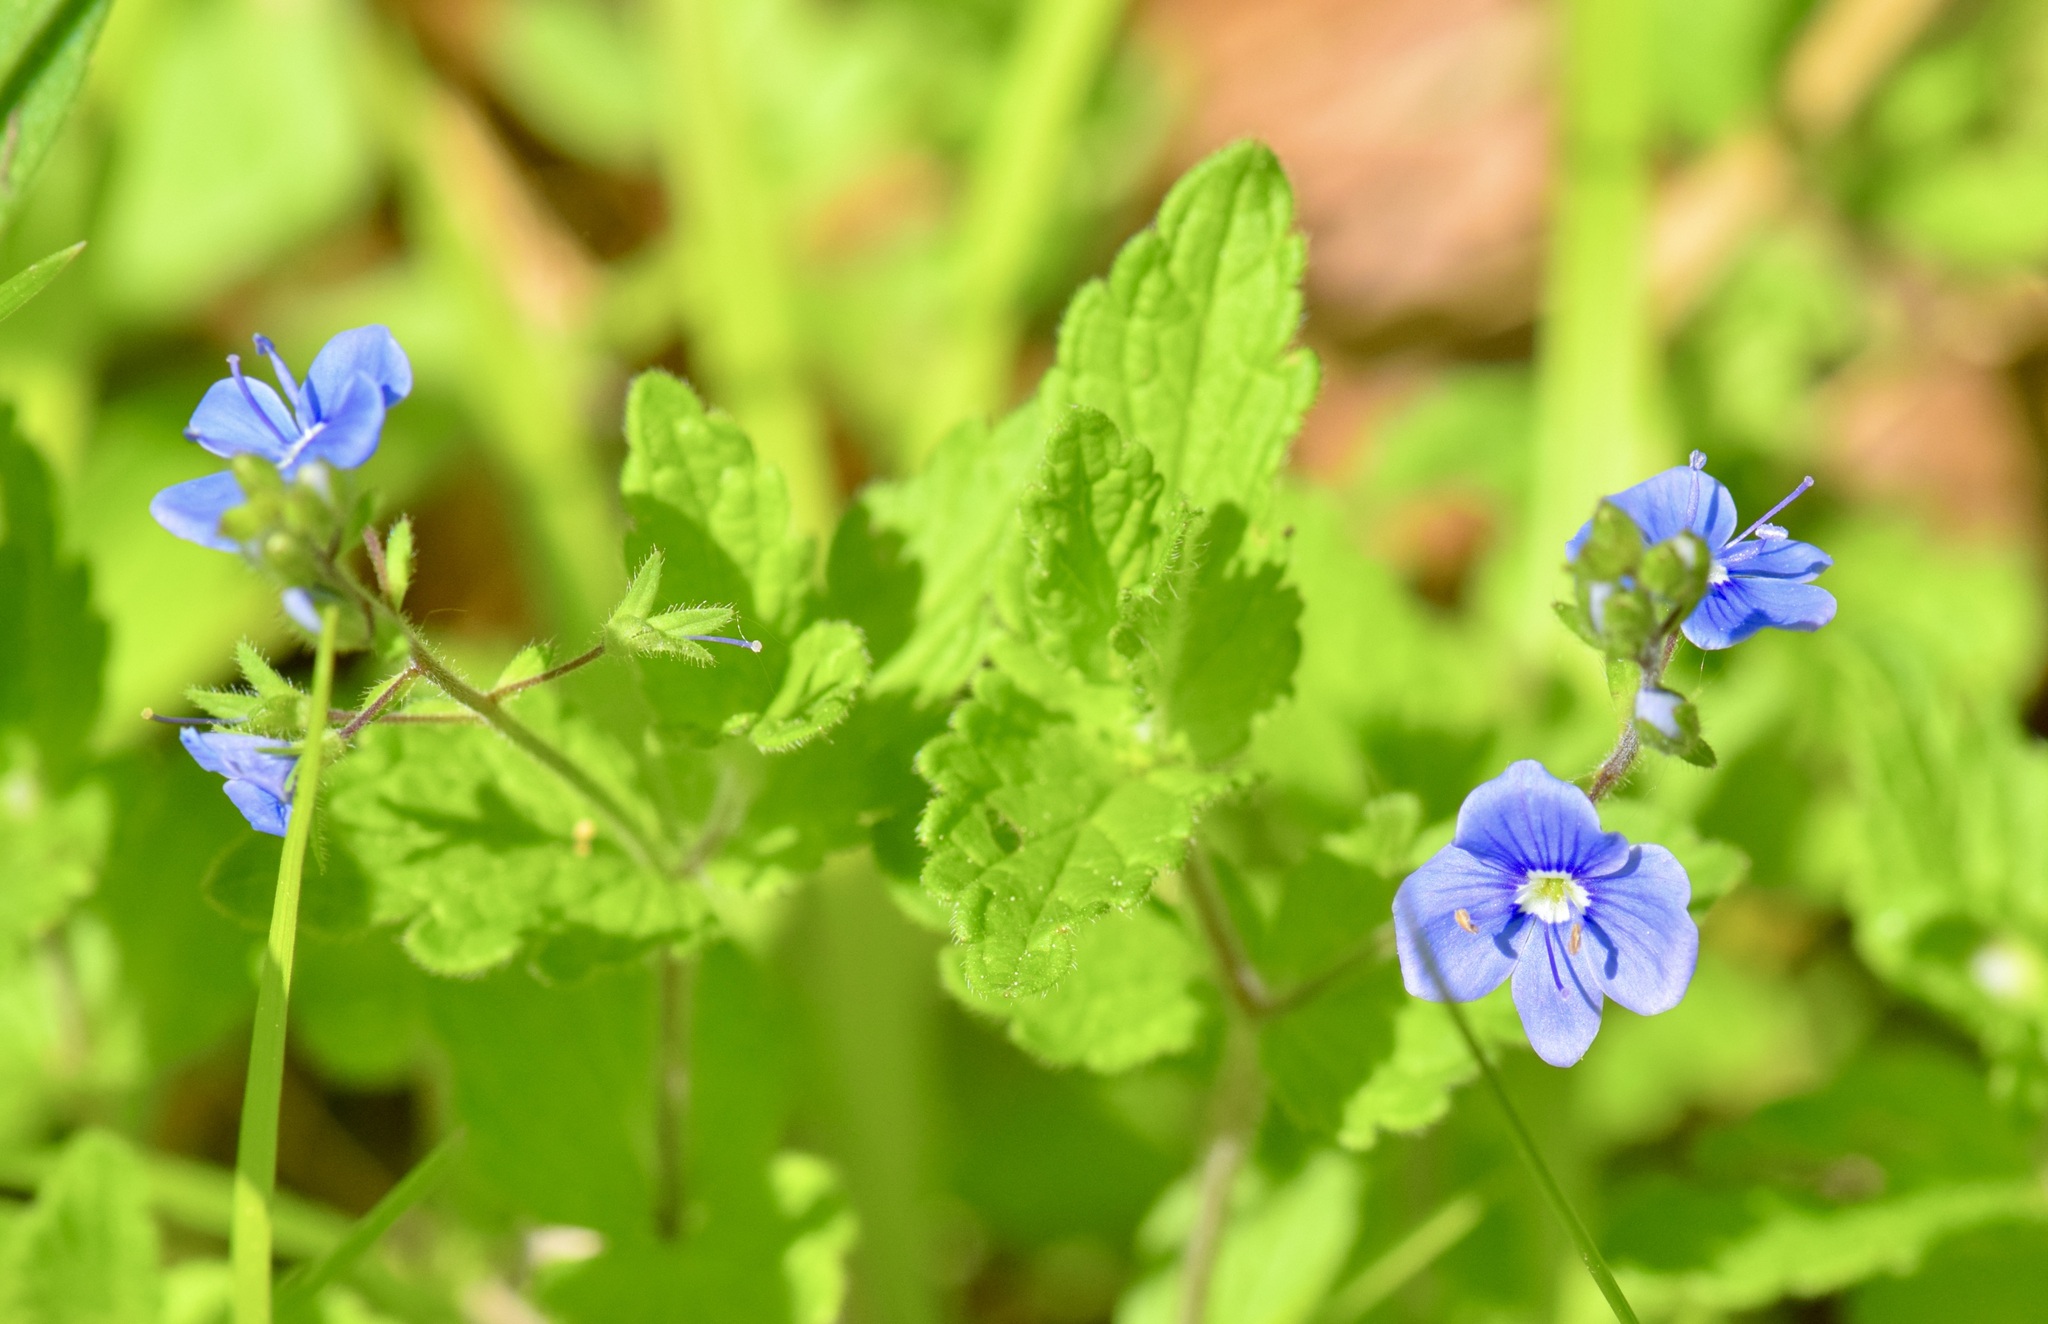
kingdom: Plantae
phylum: Tracheophyta
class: Magnoliopsida
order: Lamiales
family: Plantaginaceae
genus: Veronica
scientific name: Veronica chamaedrys
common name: Germander speedwell
